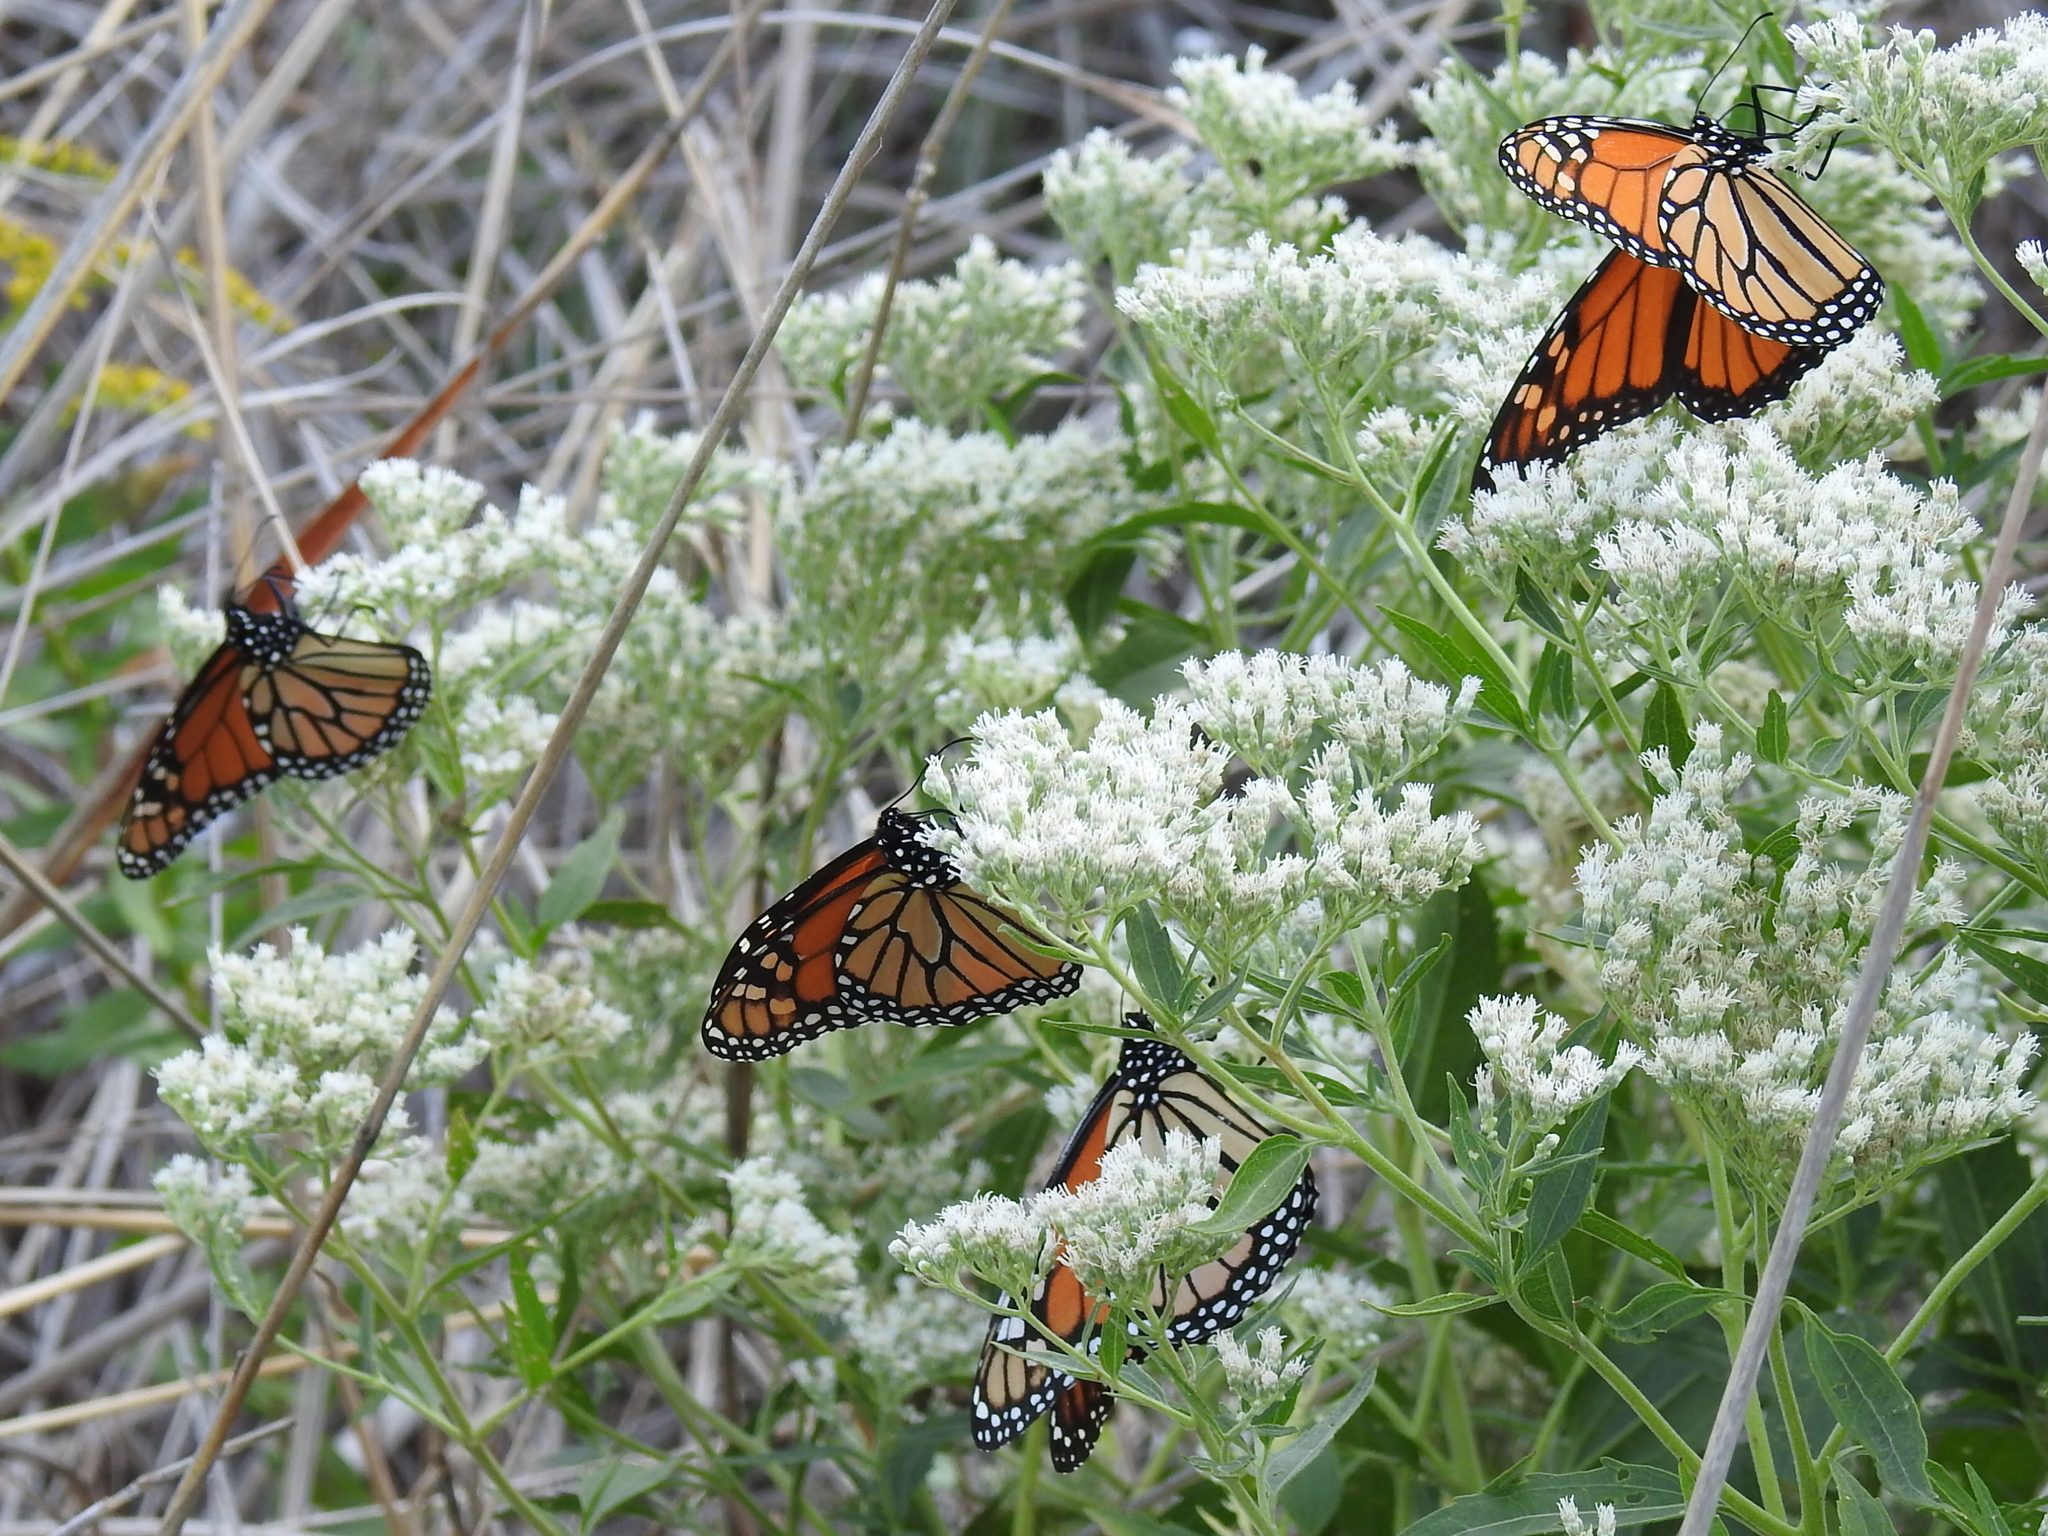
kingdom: Animalia
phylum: Arthropoda
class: Insecta
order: Lepidoptera
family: Nymphalidae
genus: Danaus
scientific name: Danaus plexippus
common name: Monarch
